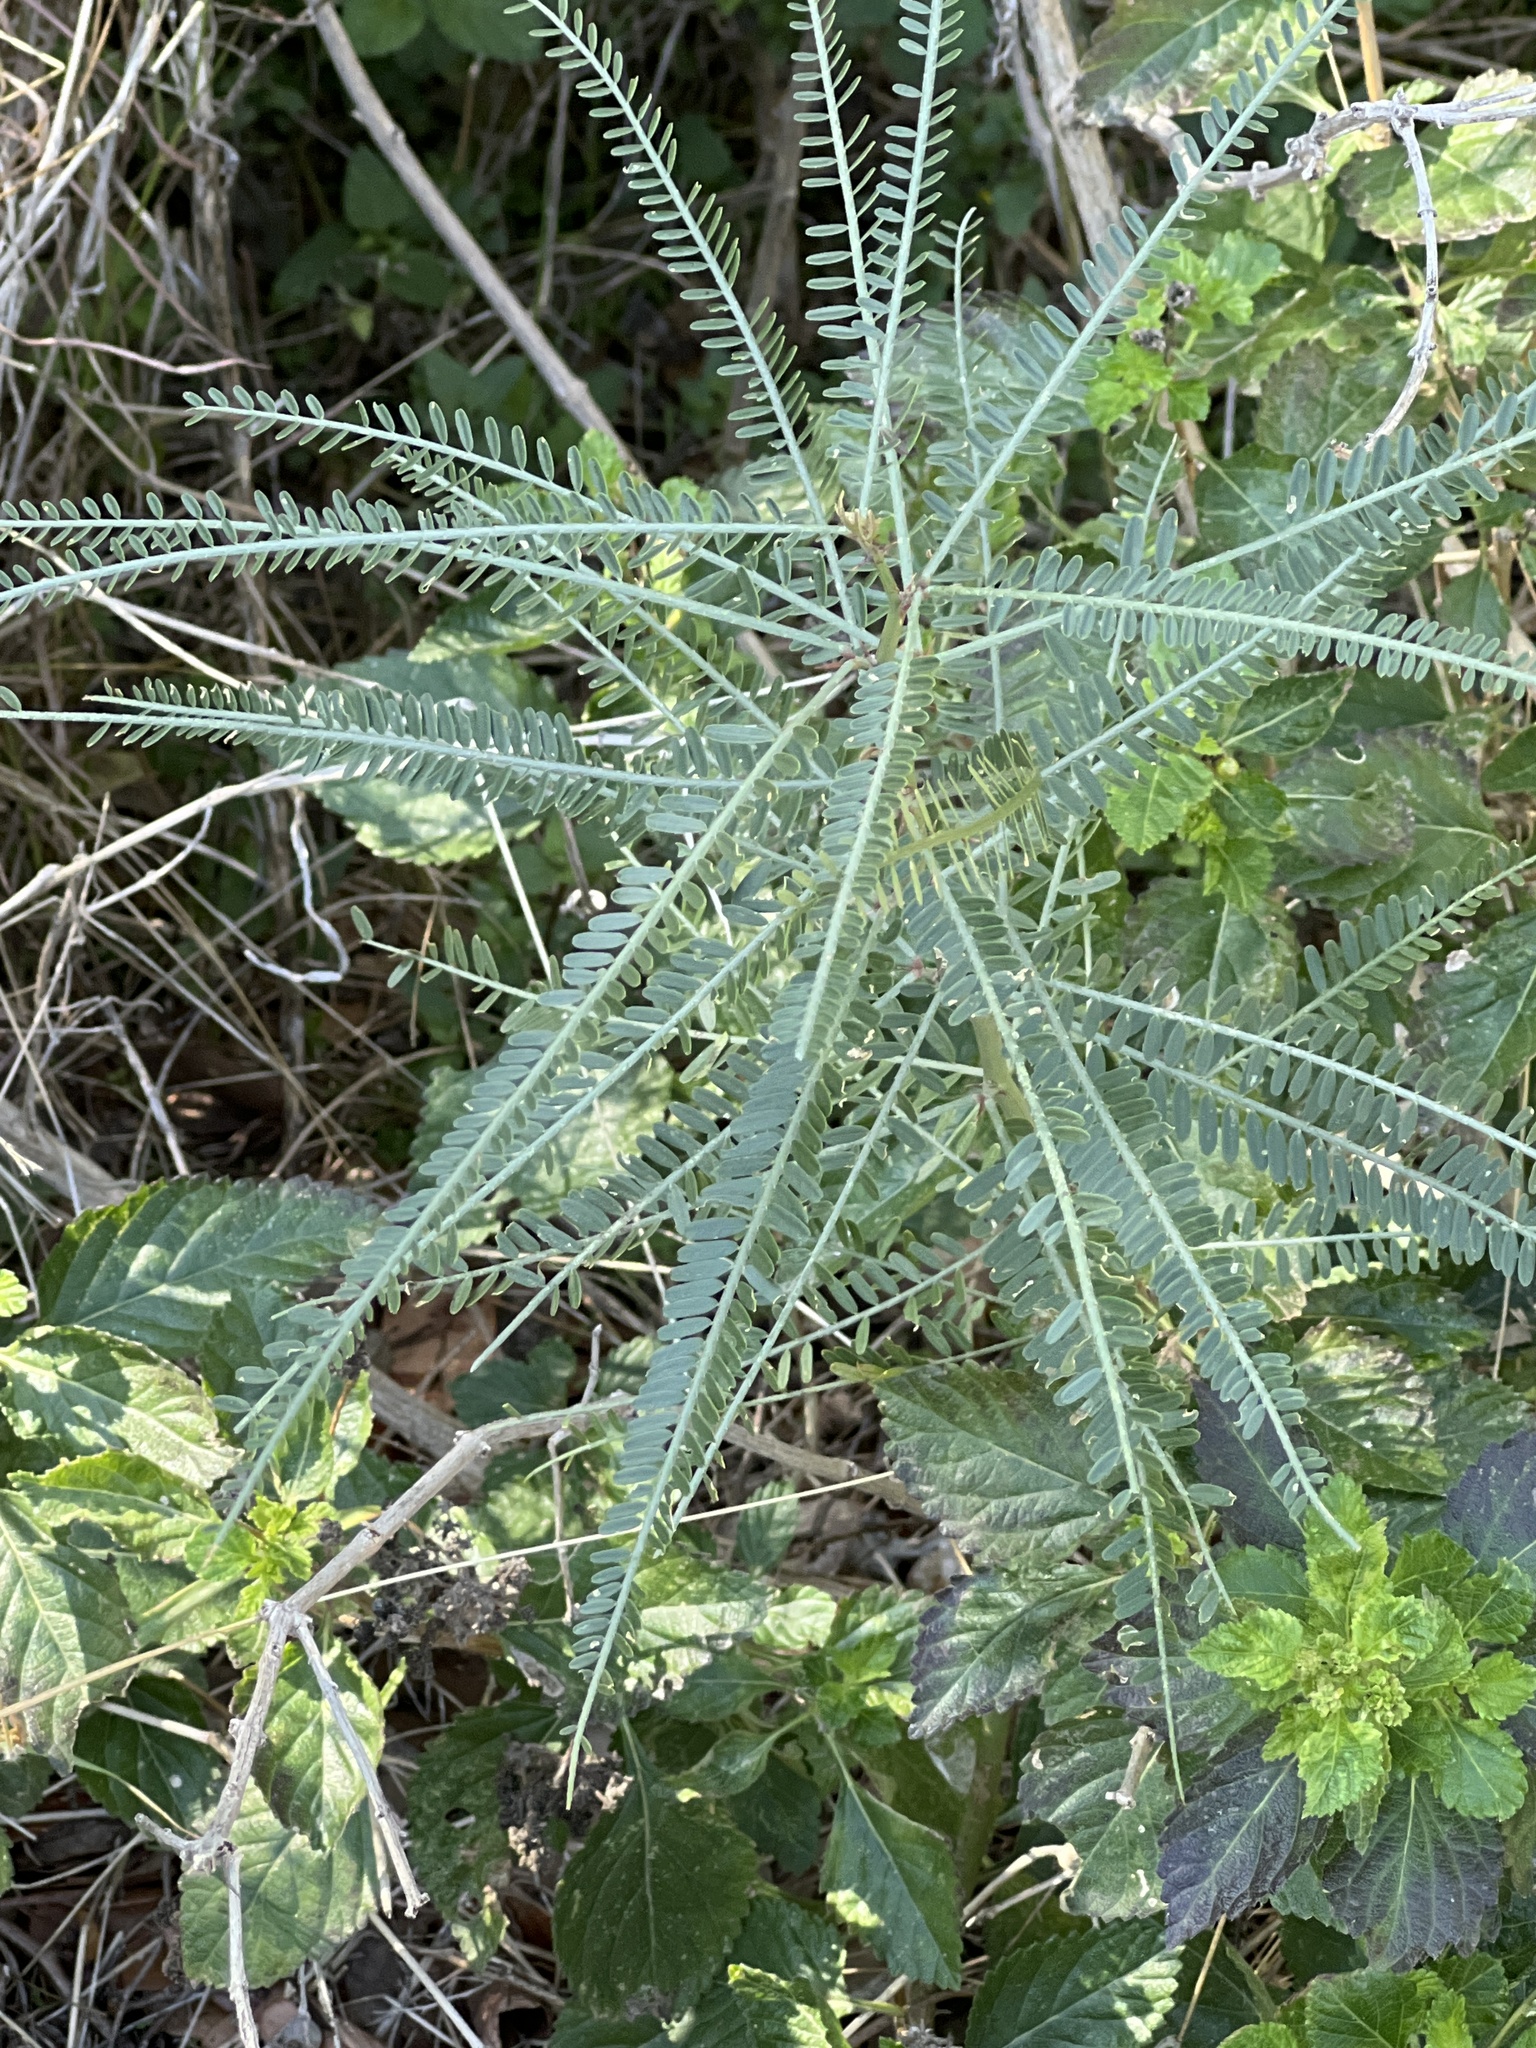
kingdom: Plantae
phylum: Tracheophyta
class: Magnoliopsida
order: Fabales
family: Fabaceae
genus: Parkinsonia
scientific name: Parkinsonia aculeata
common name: Jerusalem thorn
